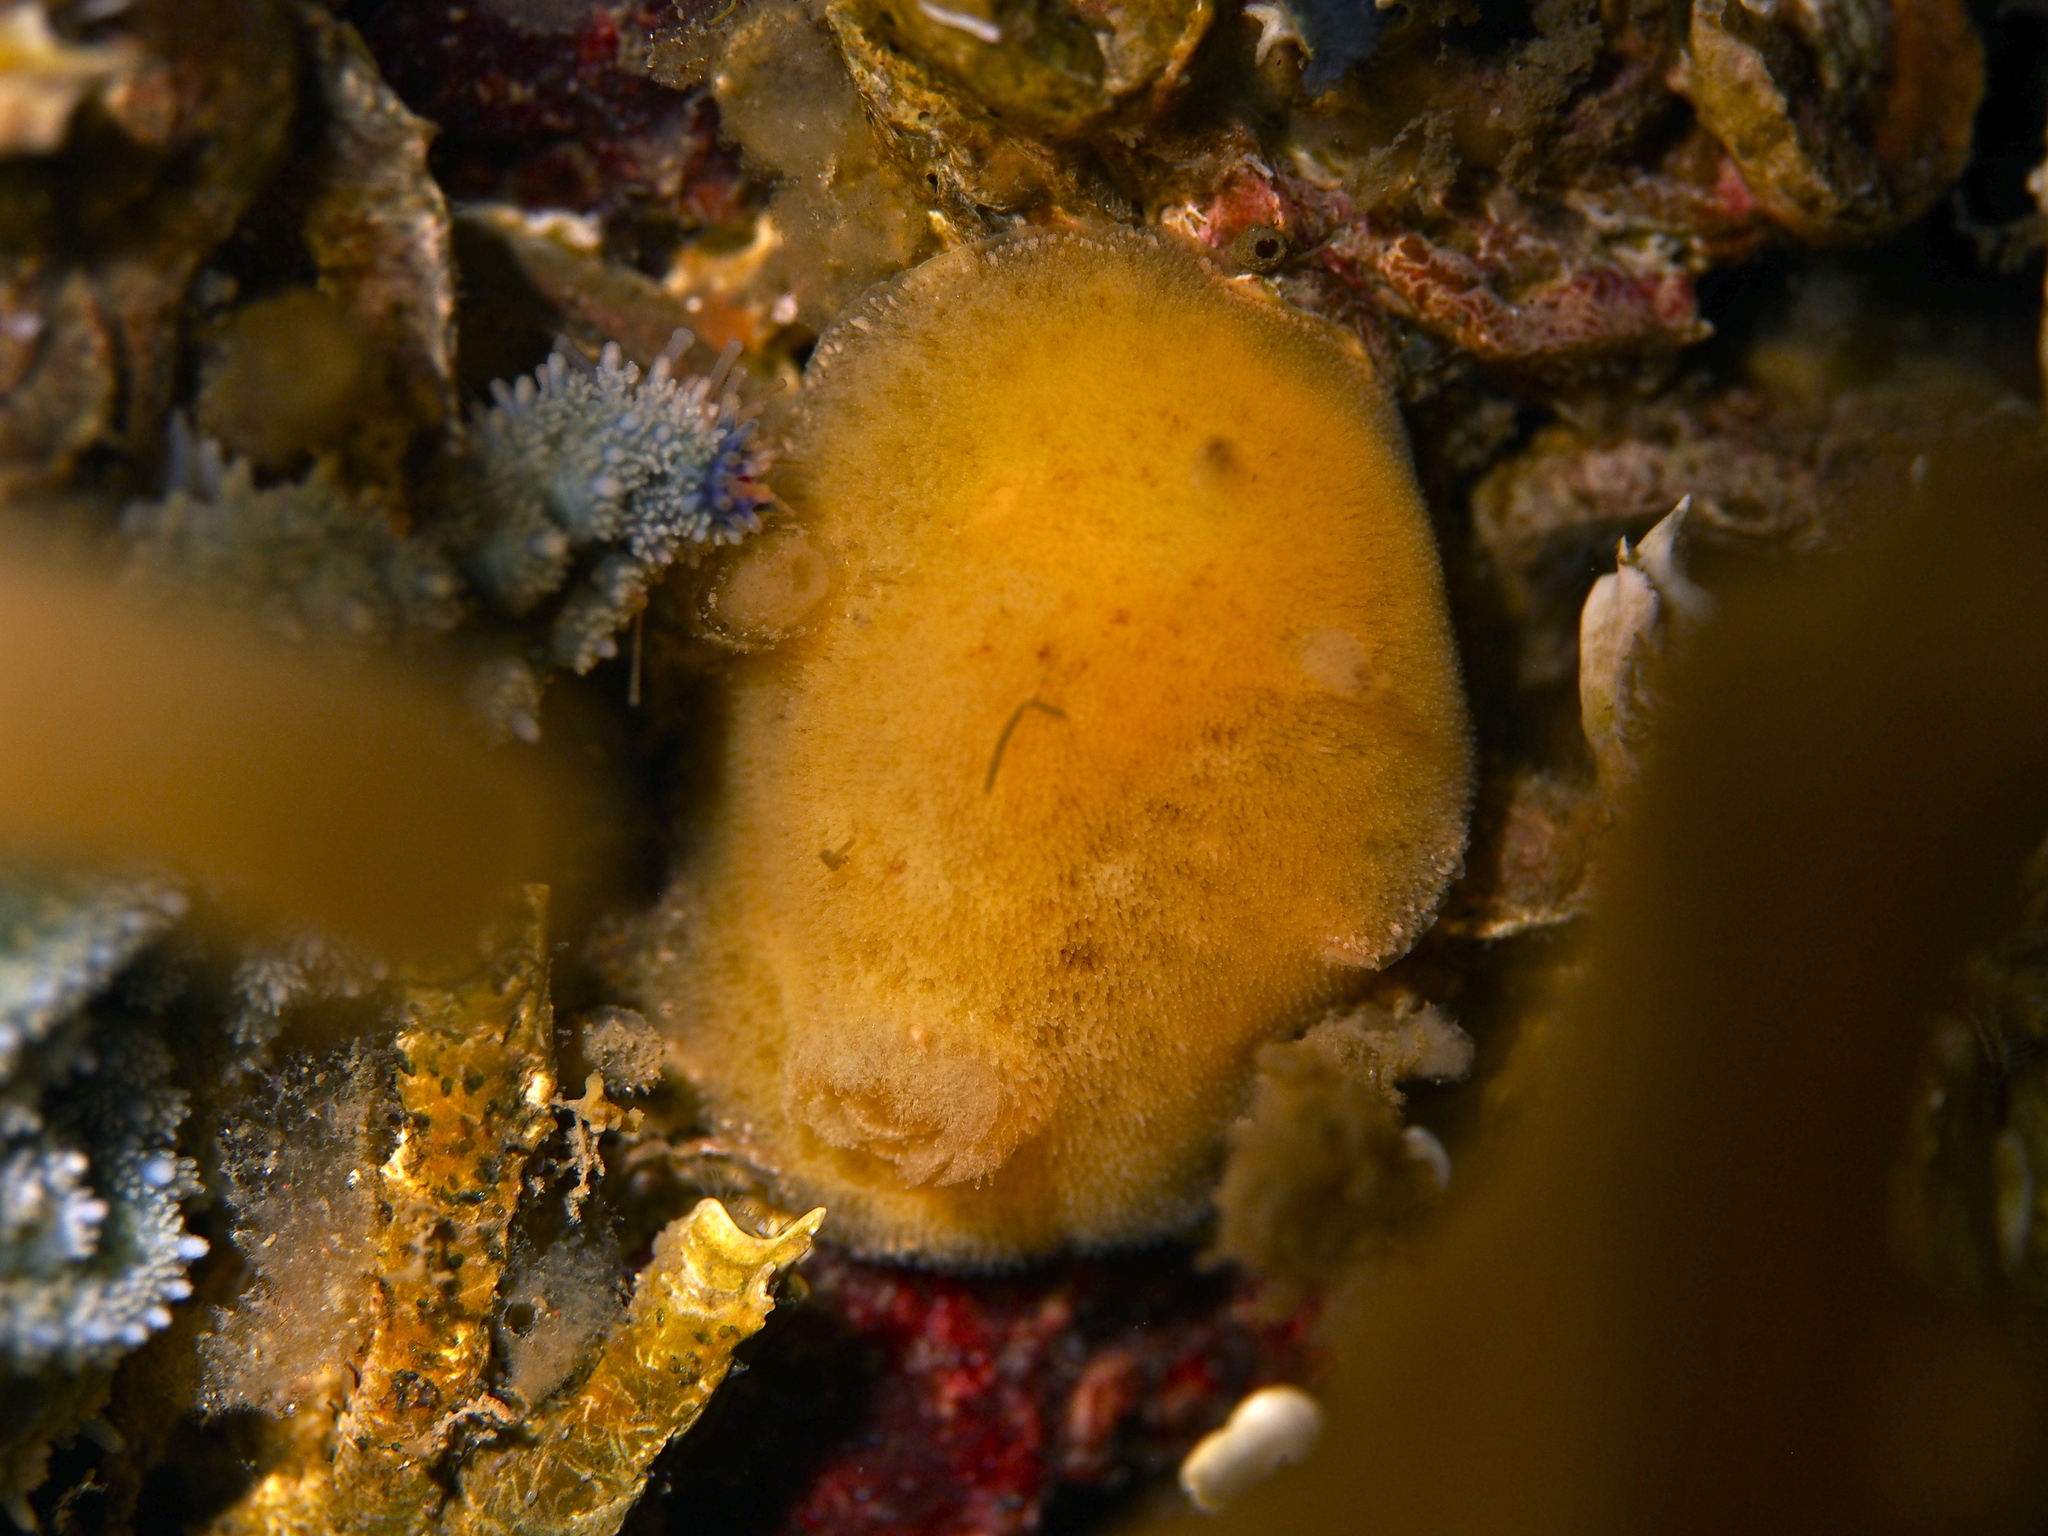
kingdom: Animalia
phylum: Mollusca
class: Gastropoda
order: Nudibranchia
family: Discodorididae
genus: Jorunna
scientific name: Jorunna tomentosa
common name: Grey sea slug
